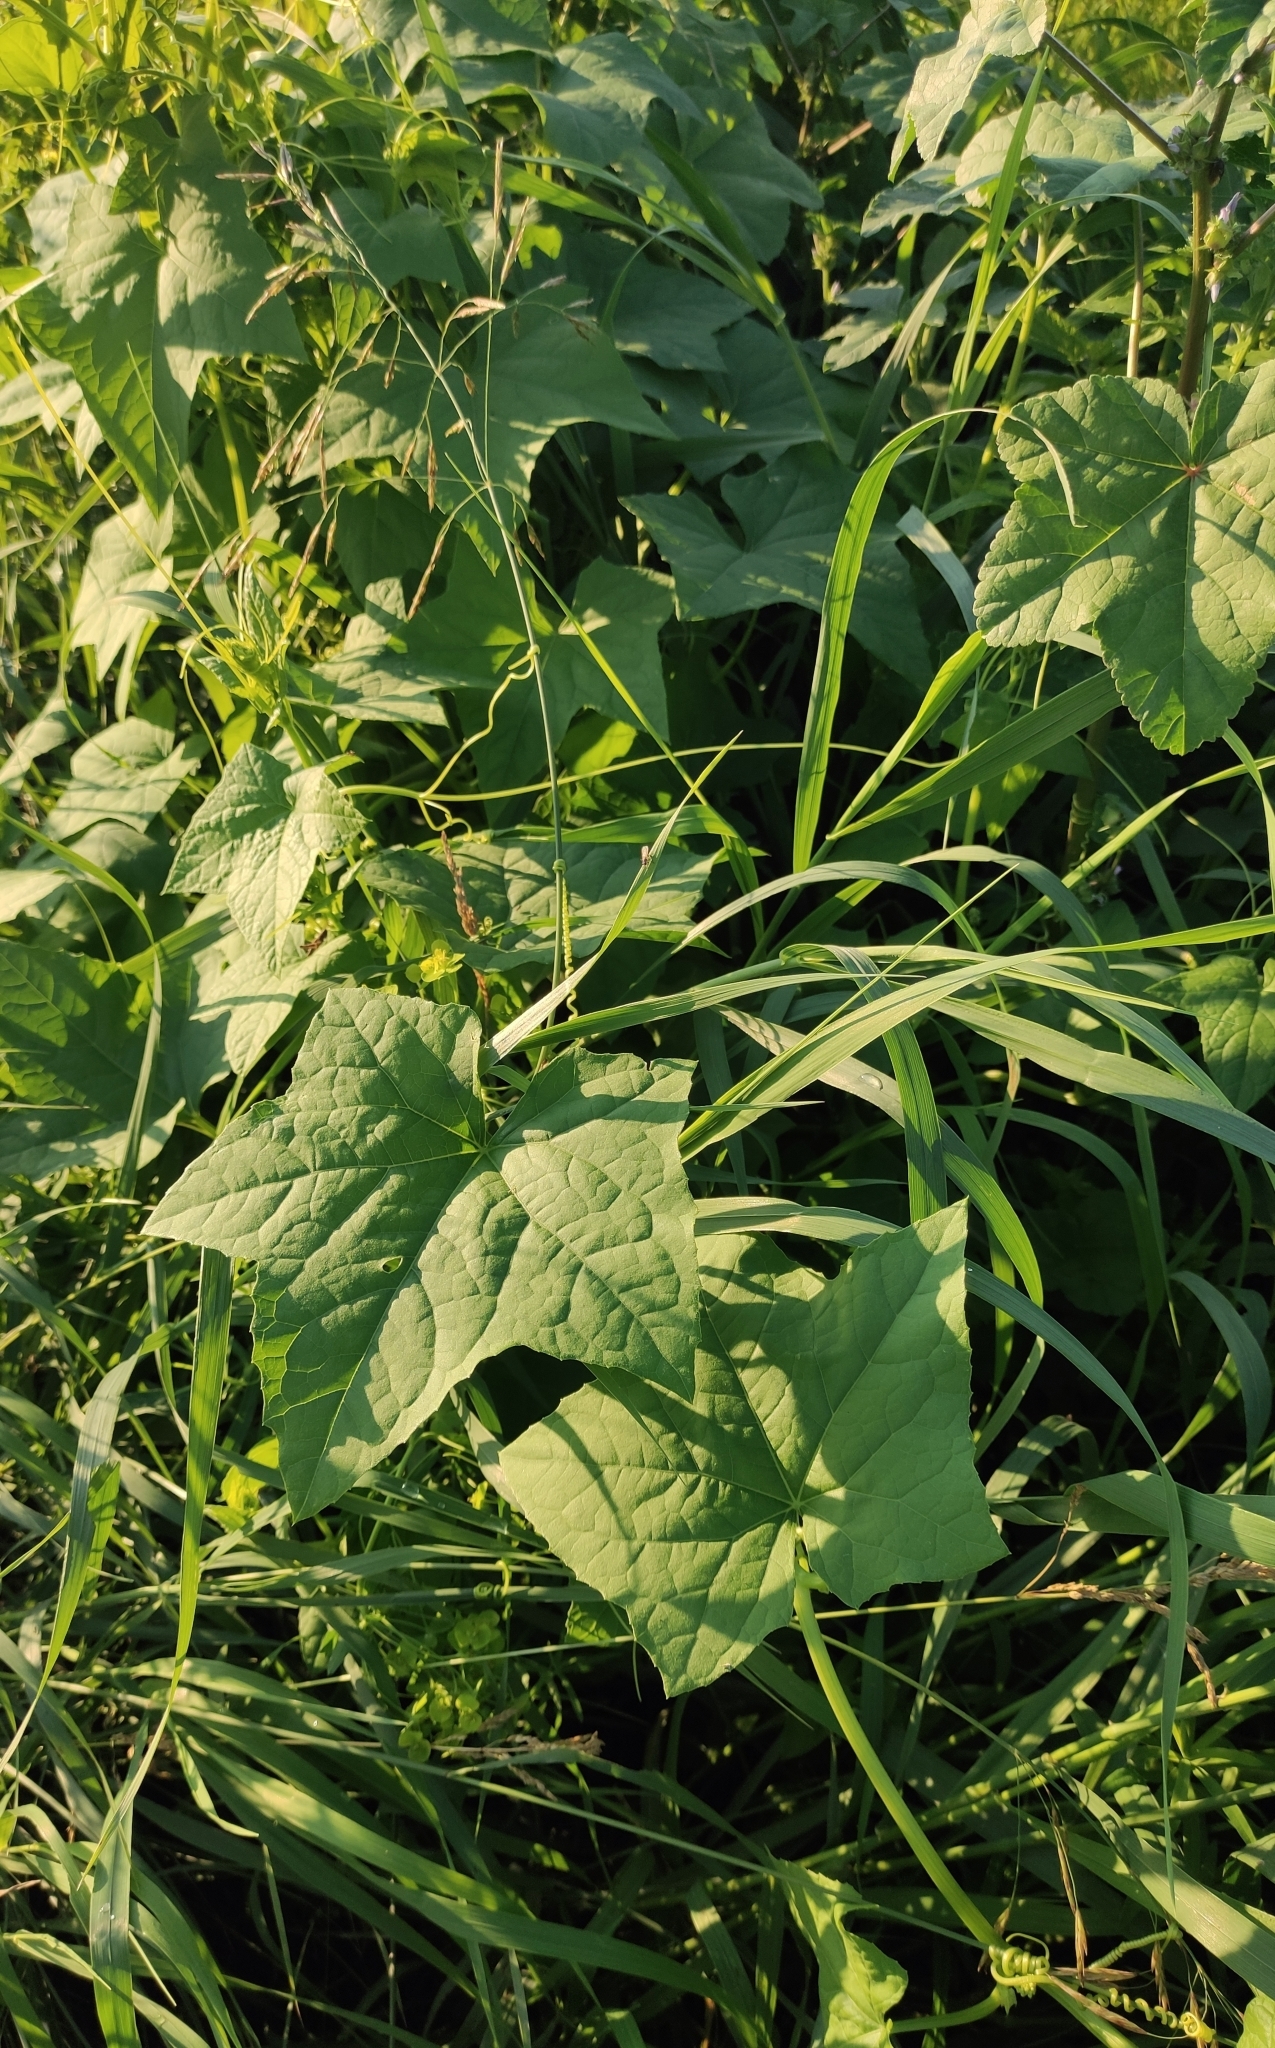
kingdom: Plantae
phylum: Tracheophyta
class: Magnoliopsida
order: Cucurbitales
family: Cucurbitaceae
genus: Echinocystis
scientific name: Echinocystis lobata
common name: Wild cucumber
